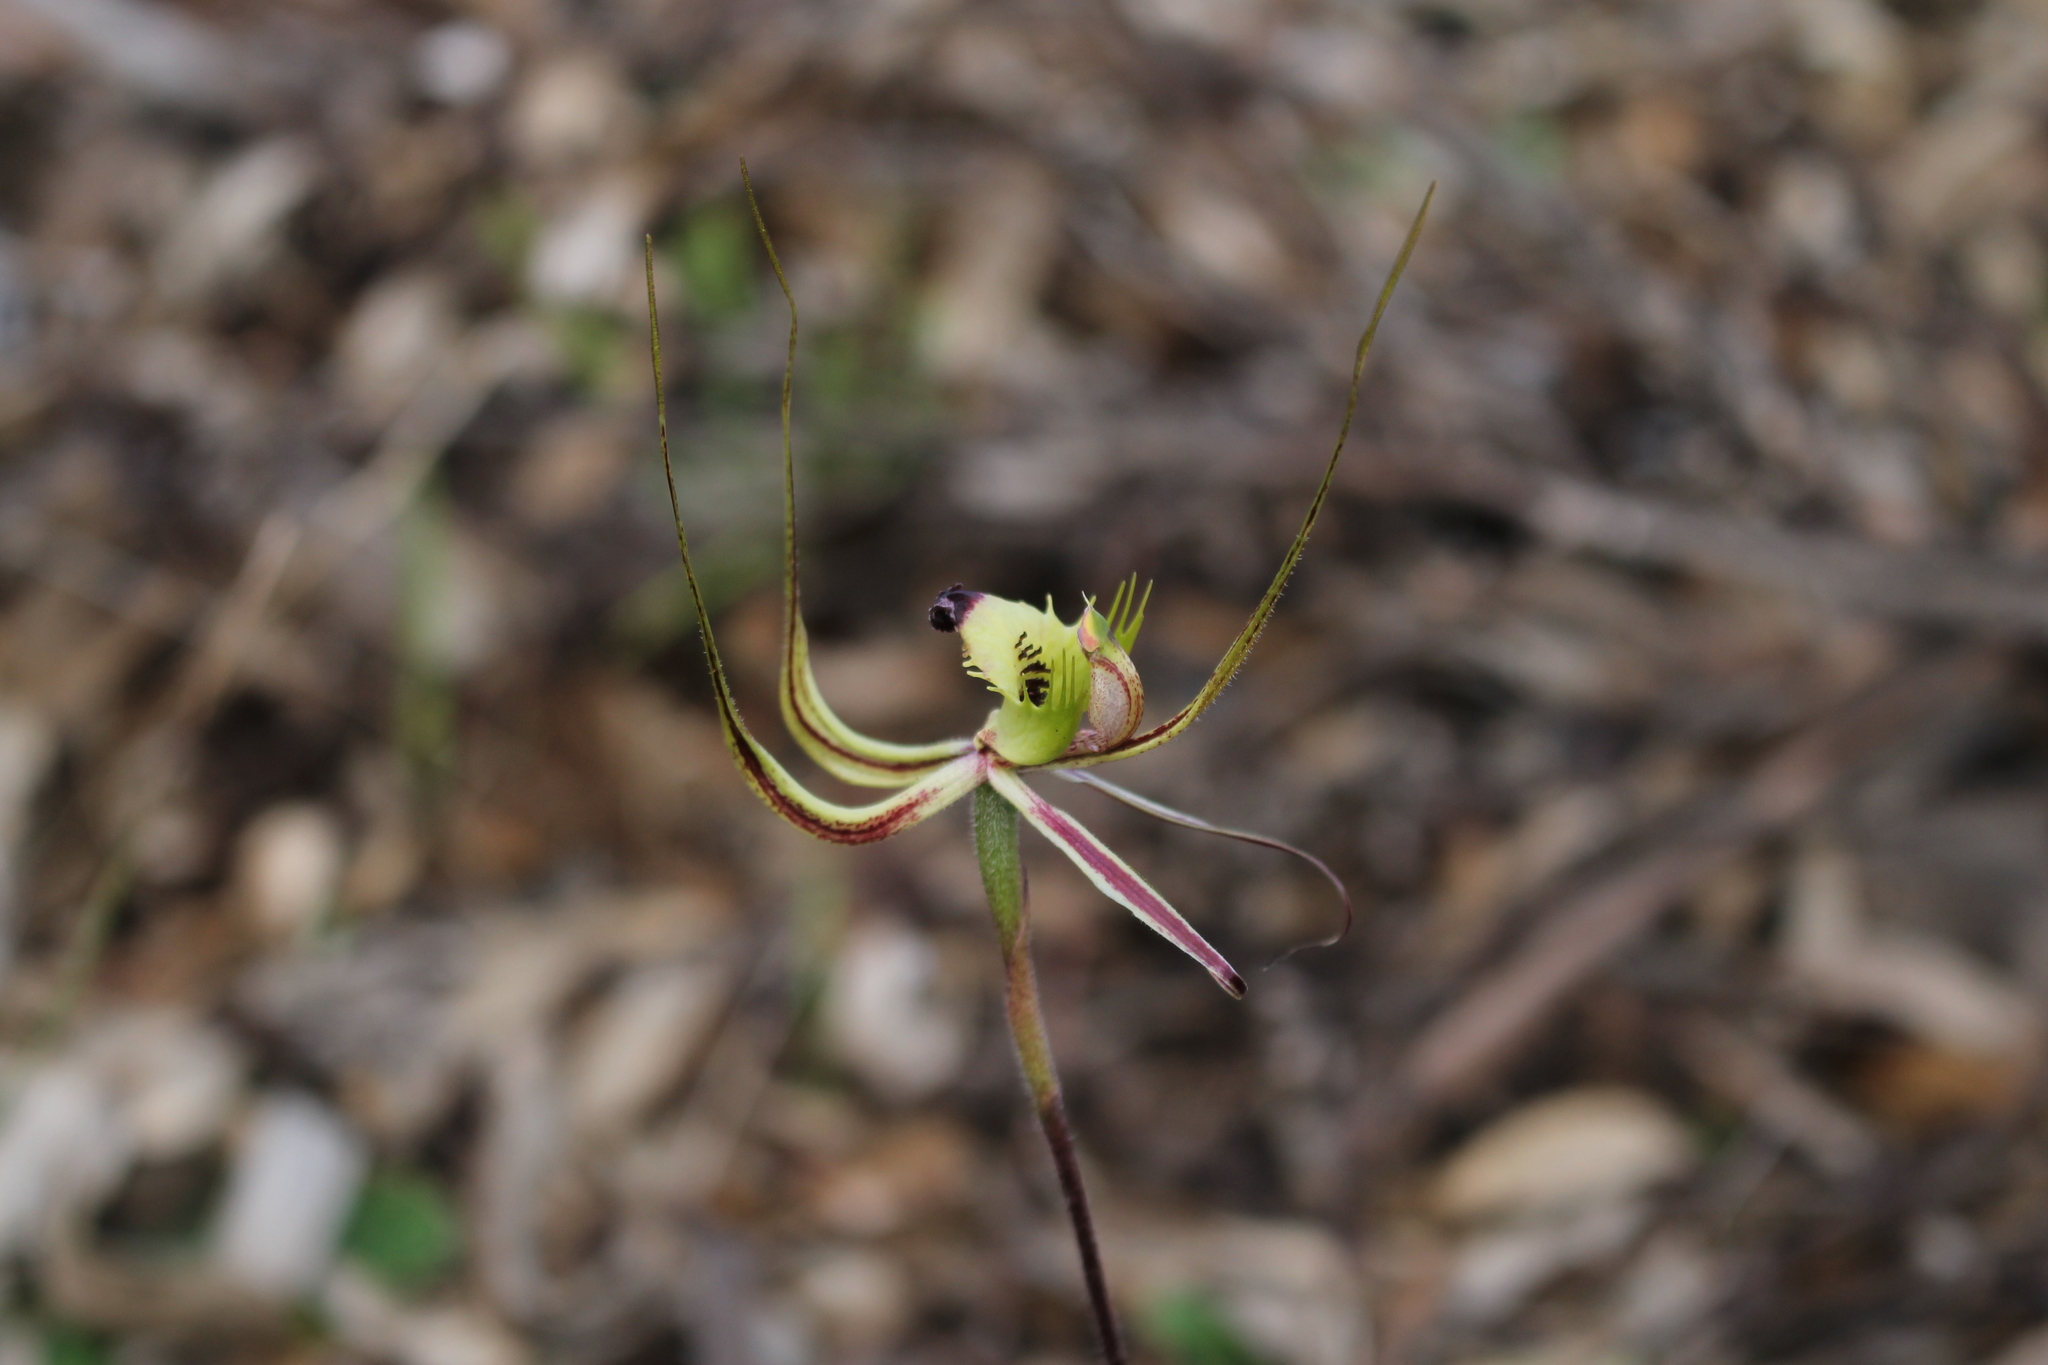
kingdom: Plantae
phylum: Tracheophyta
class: Liliopsida
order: Asparagales
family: Orchidaceae
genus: Caladenia
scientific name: Caladenia falcata
